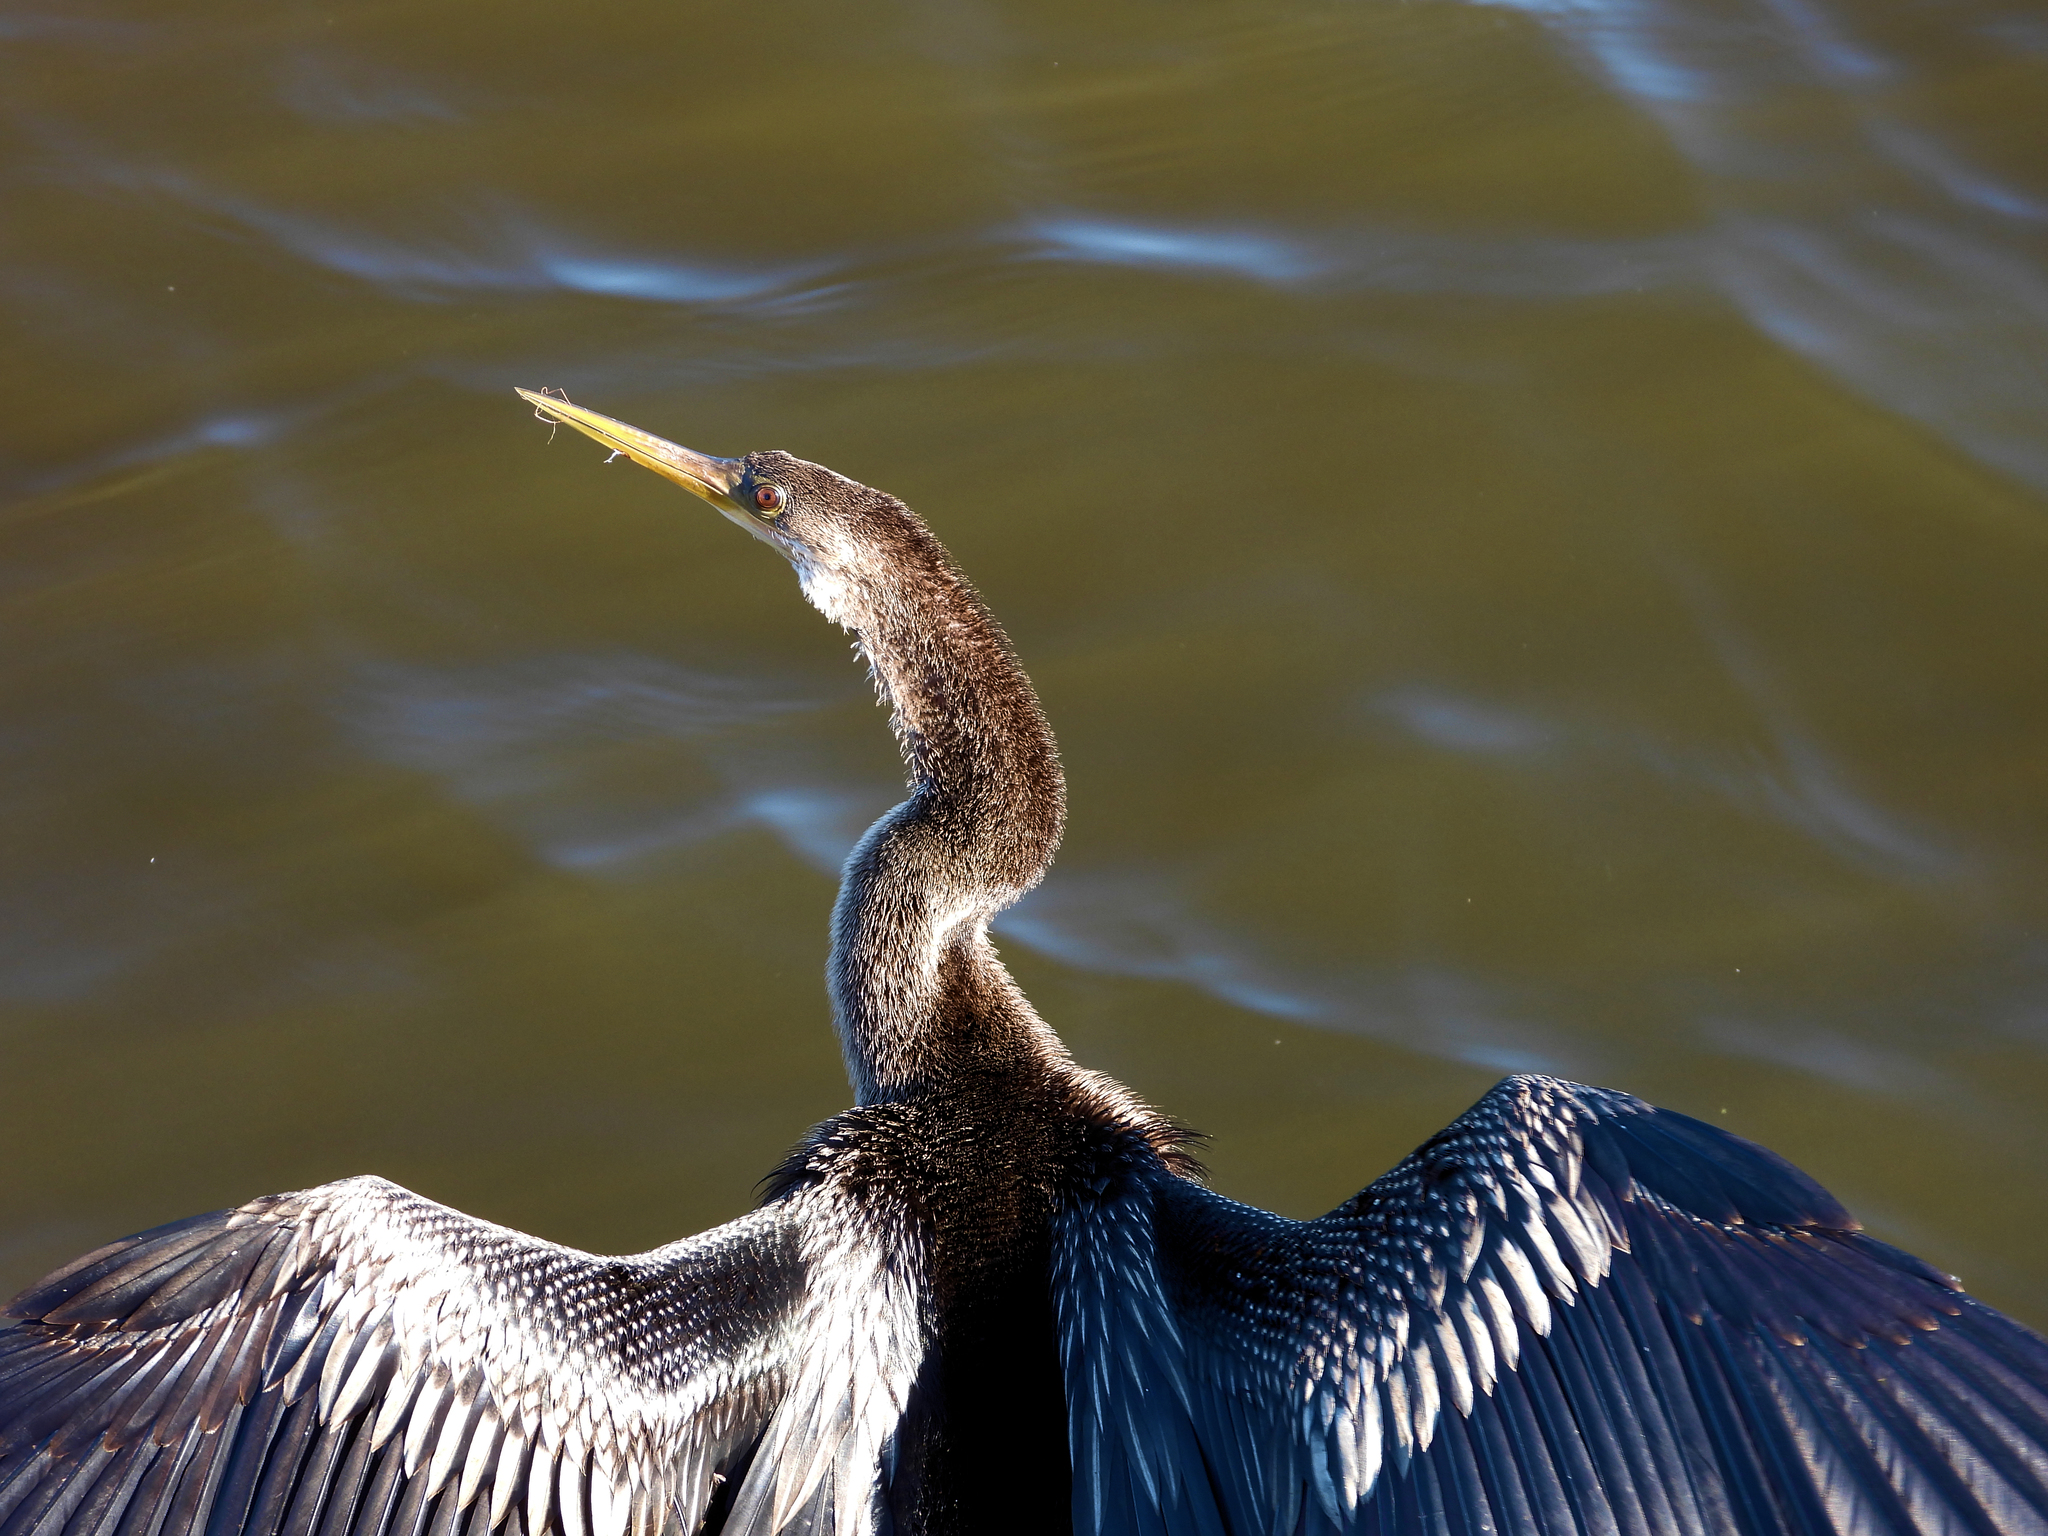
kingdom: Animalia
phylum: Chordata
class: Aves
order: Suliformes
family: Anhingidae
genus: Anhinga
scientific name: Anhinga anhinga
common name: Anhinga
